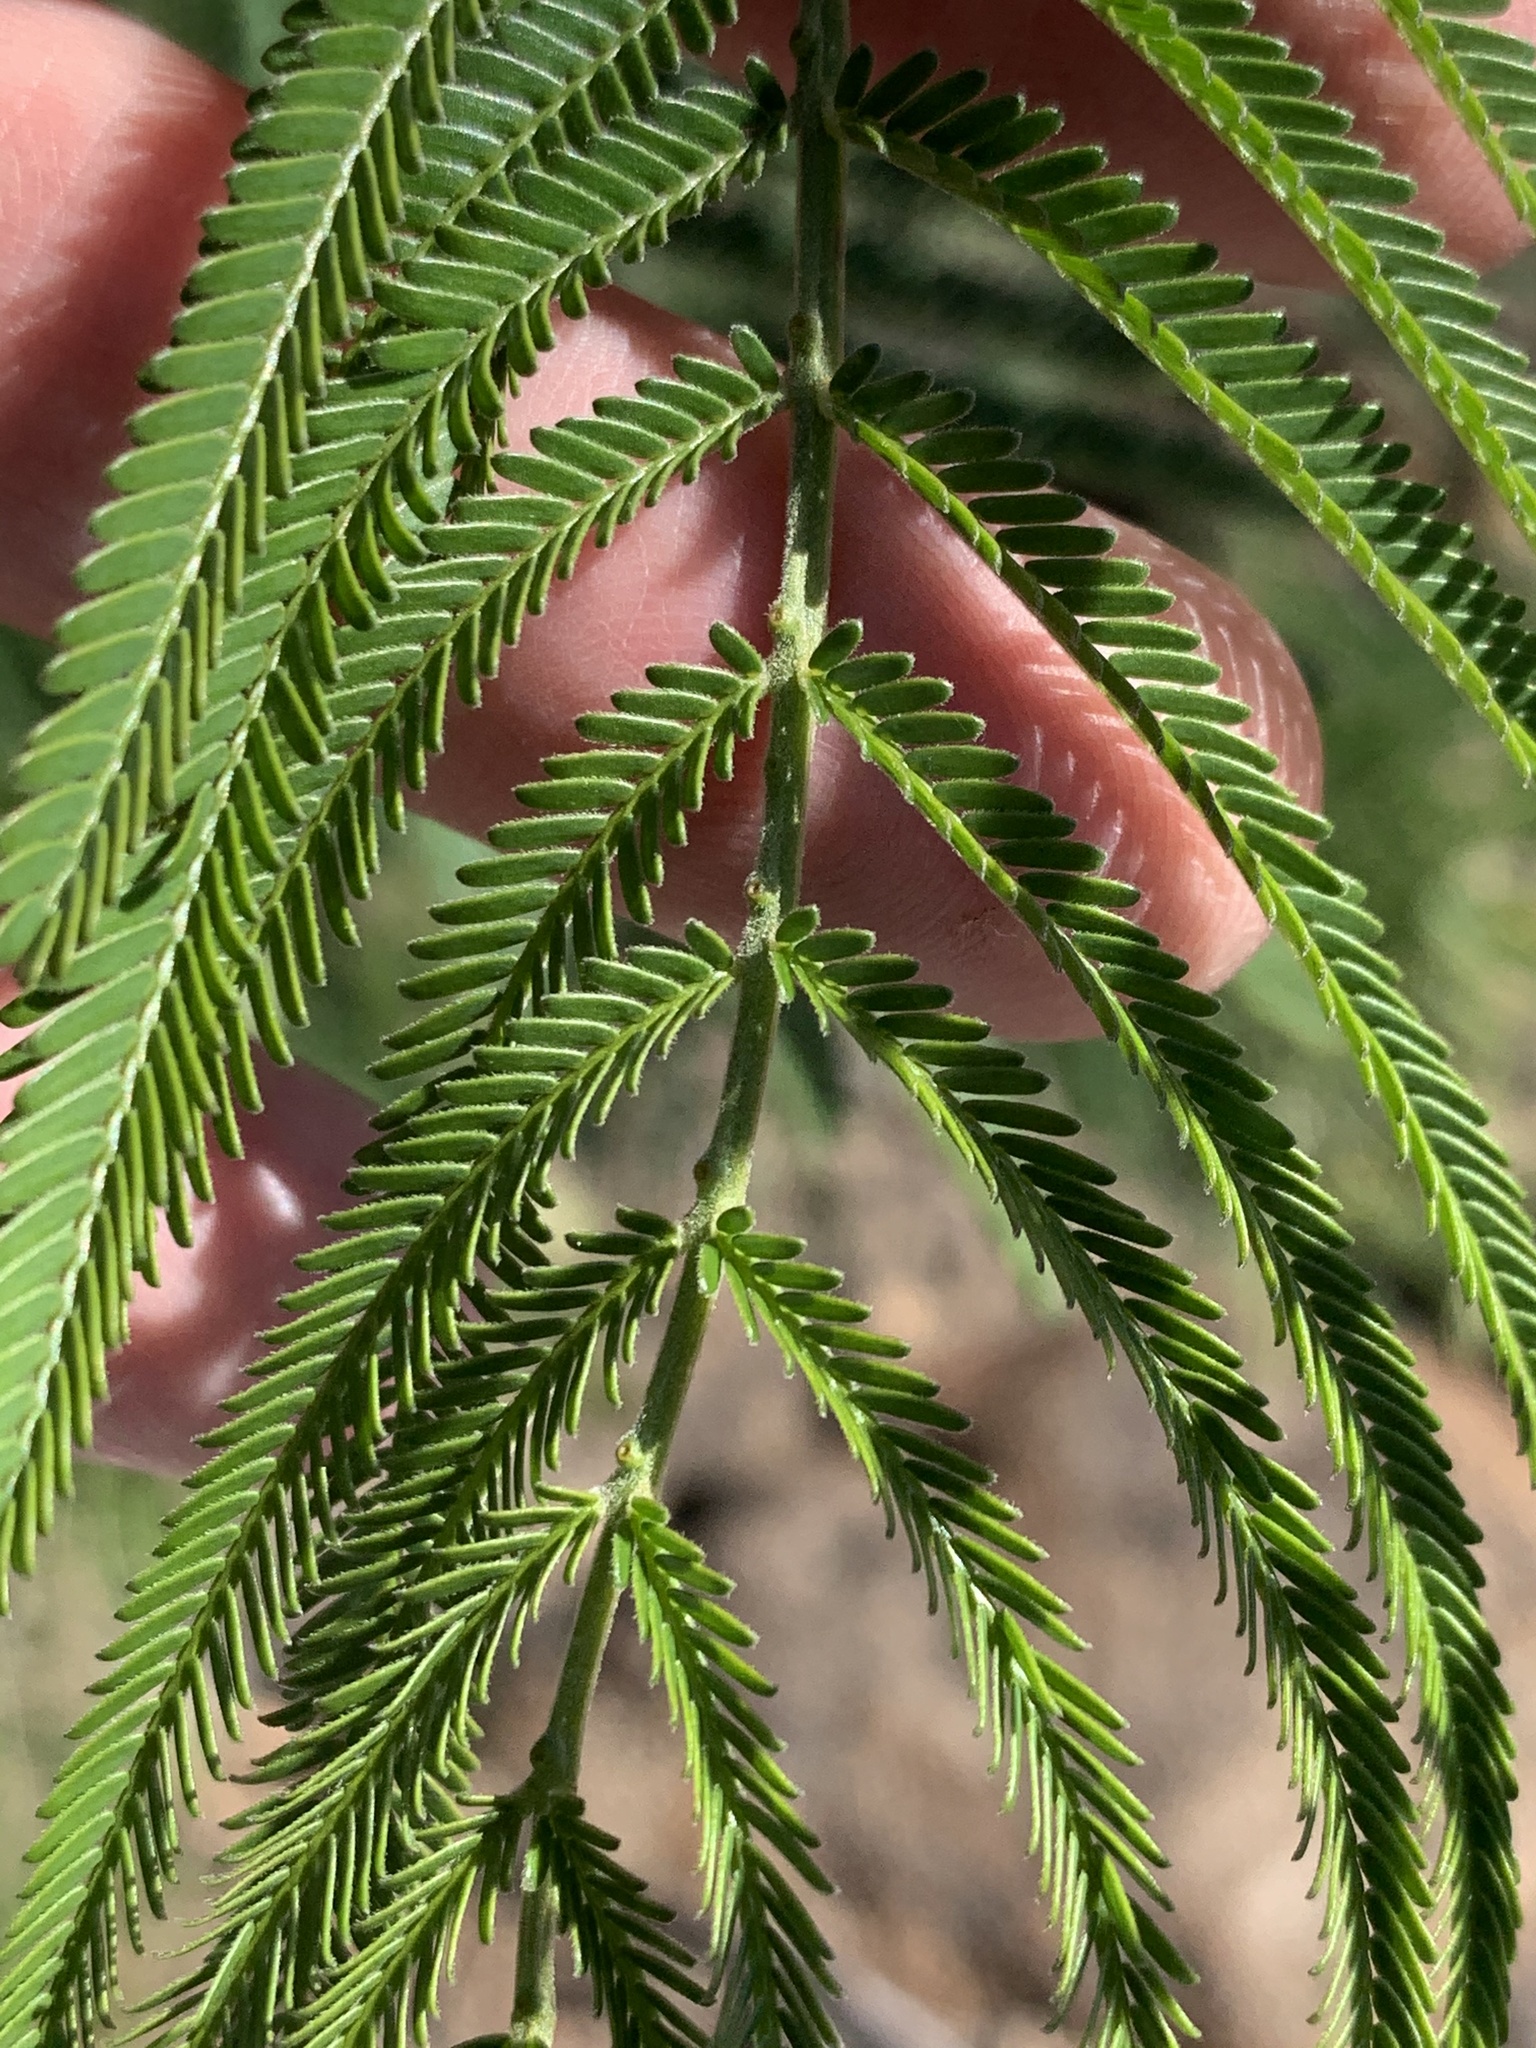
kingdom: Plantae
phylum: Tracheophyta
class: Magnoliopsida
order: Fabales
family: Fabaceae
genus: Acacia
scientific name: Acacia mearnsii
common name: Black wattle
